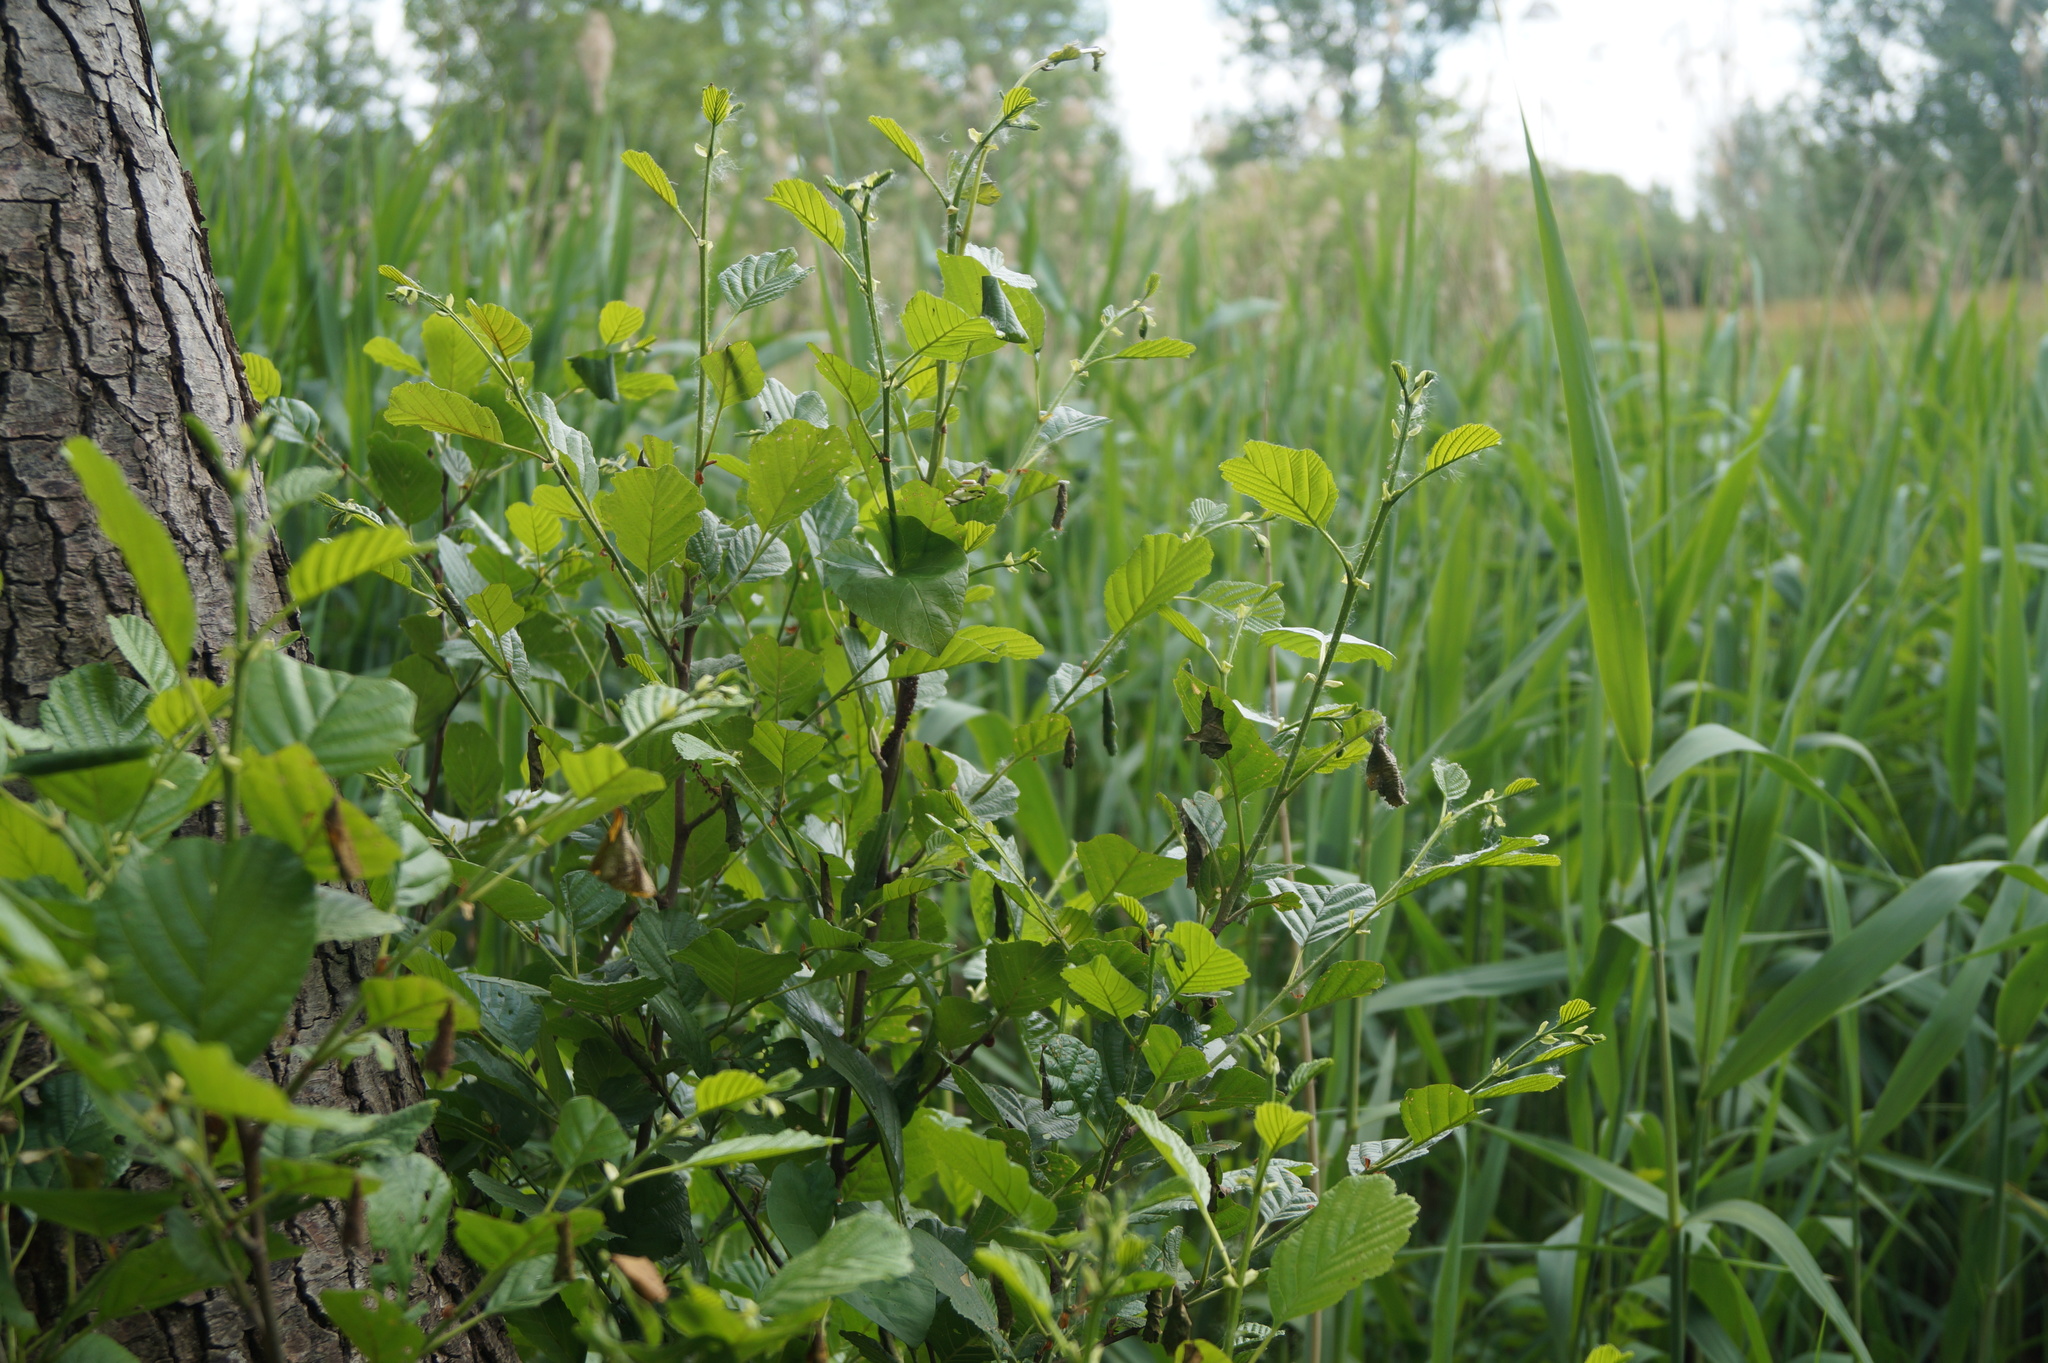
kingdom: Animalia
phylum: Arthropoda
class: Insecta
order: Coleoptera
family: Attelabidae
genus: Deporaus
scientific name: Deporaus betulae
